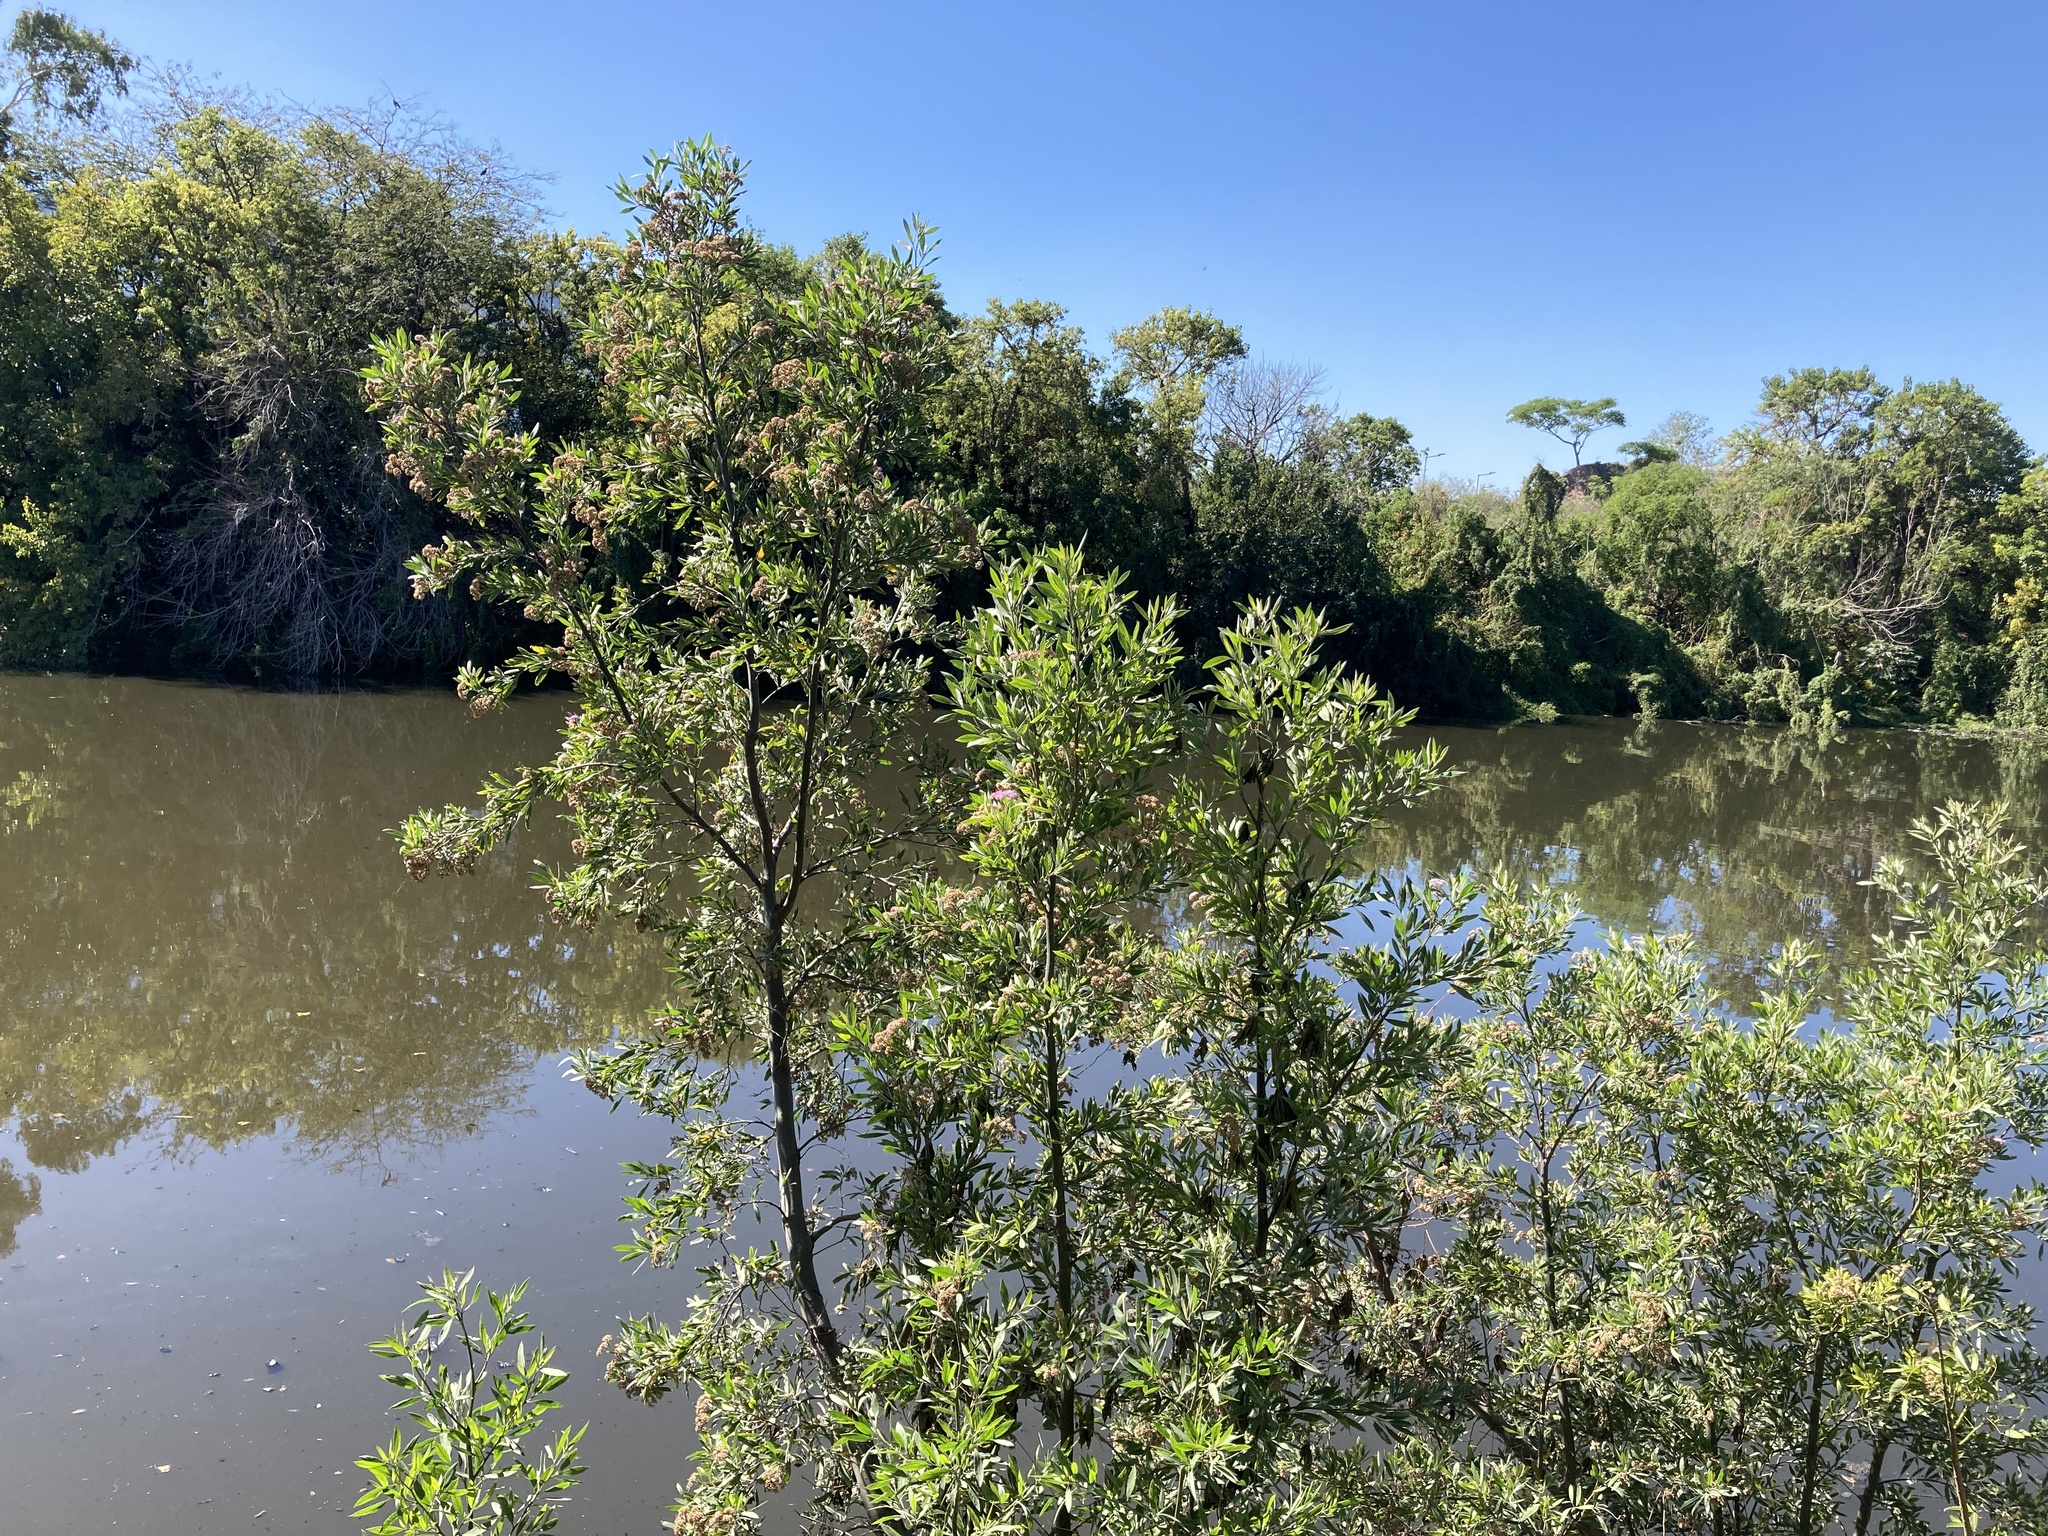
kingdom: Plantae
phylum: Tracheophyta
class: Magnoliopsida
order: Asterales
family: Asteraceae
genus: Tessaria
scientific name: Tessaria integrifolia
